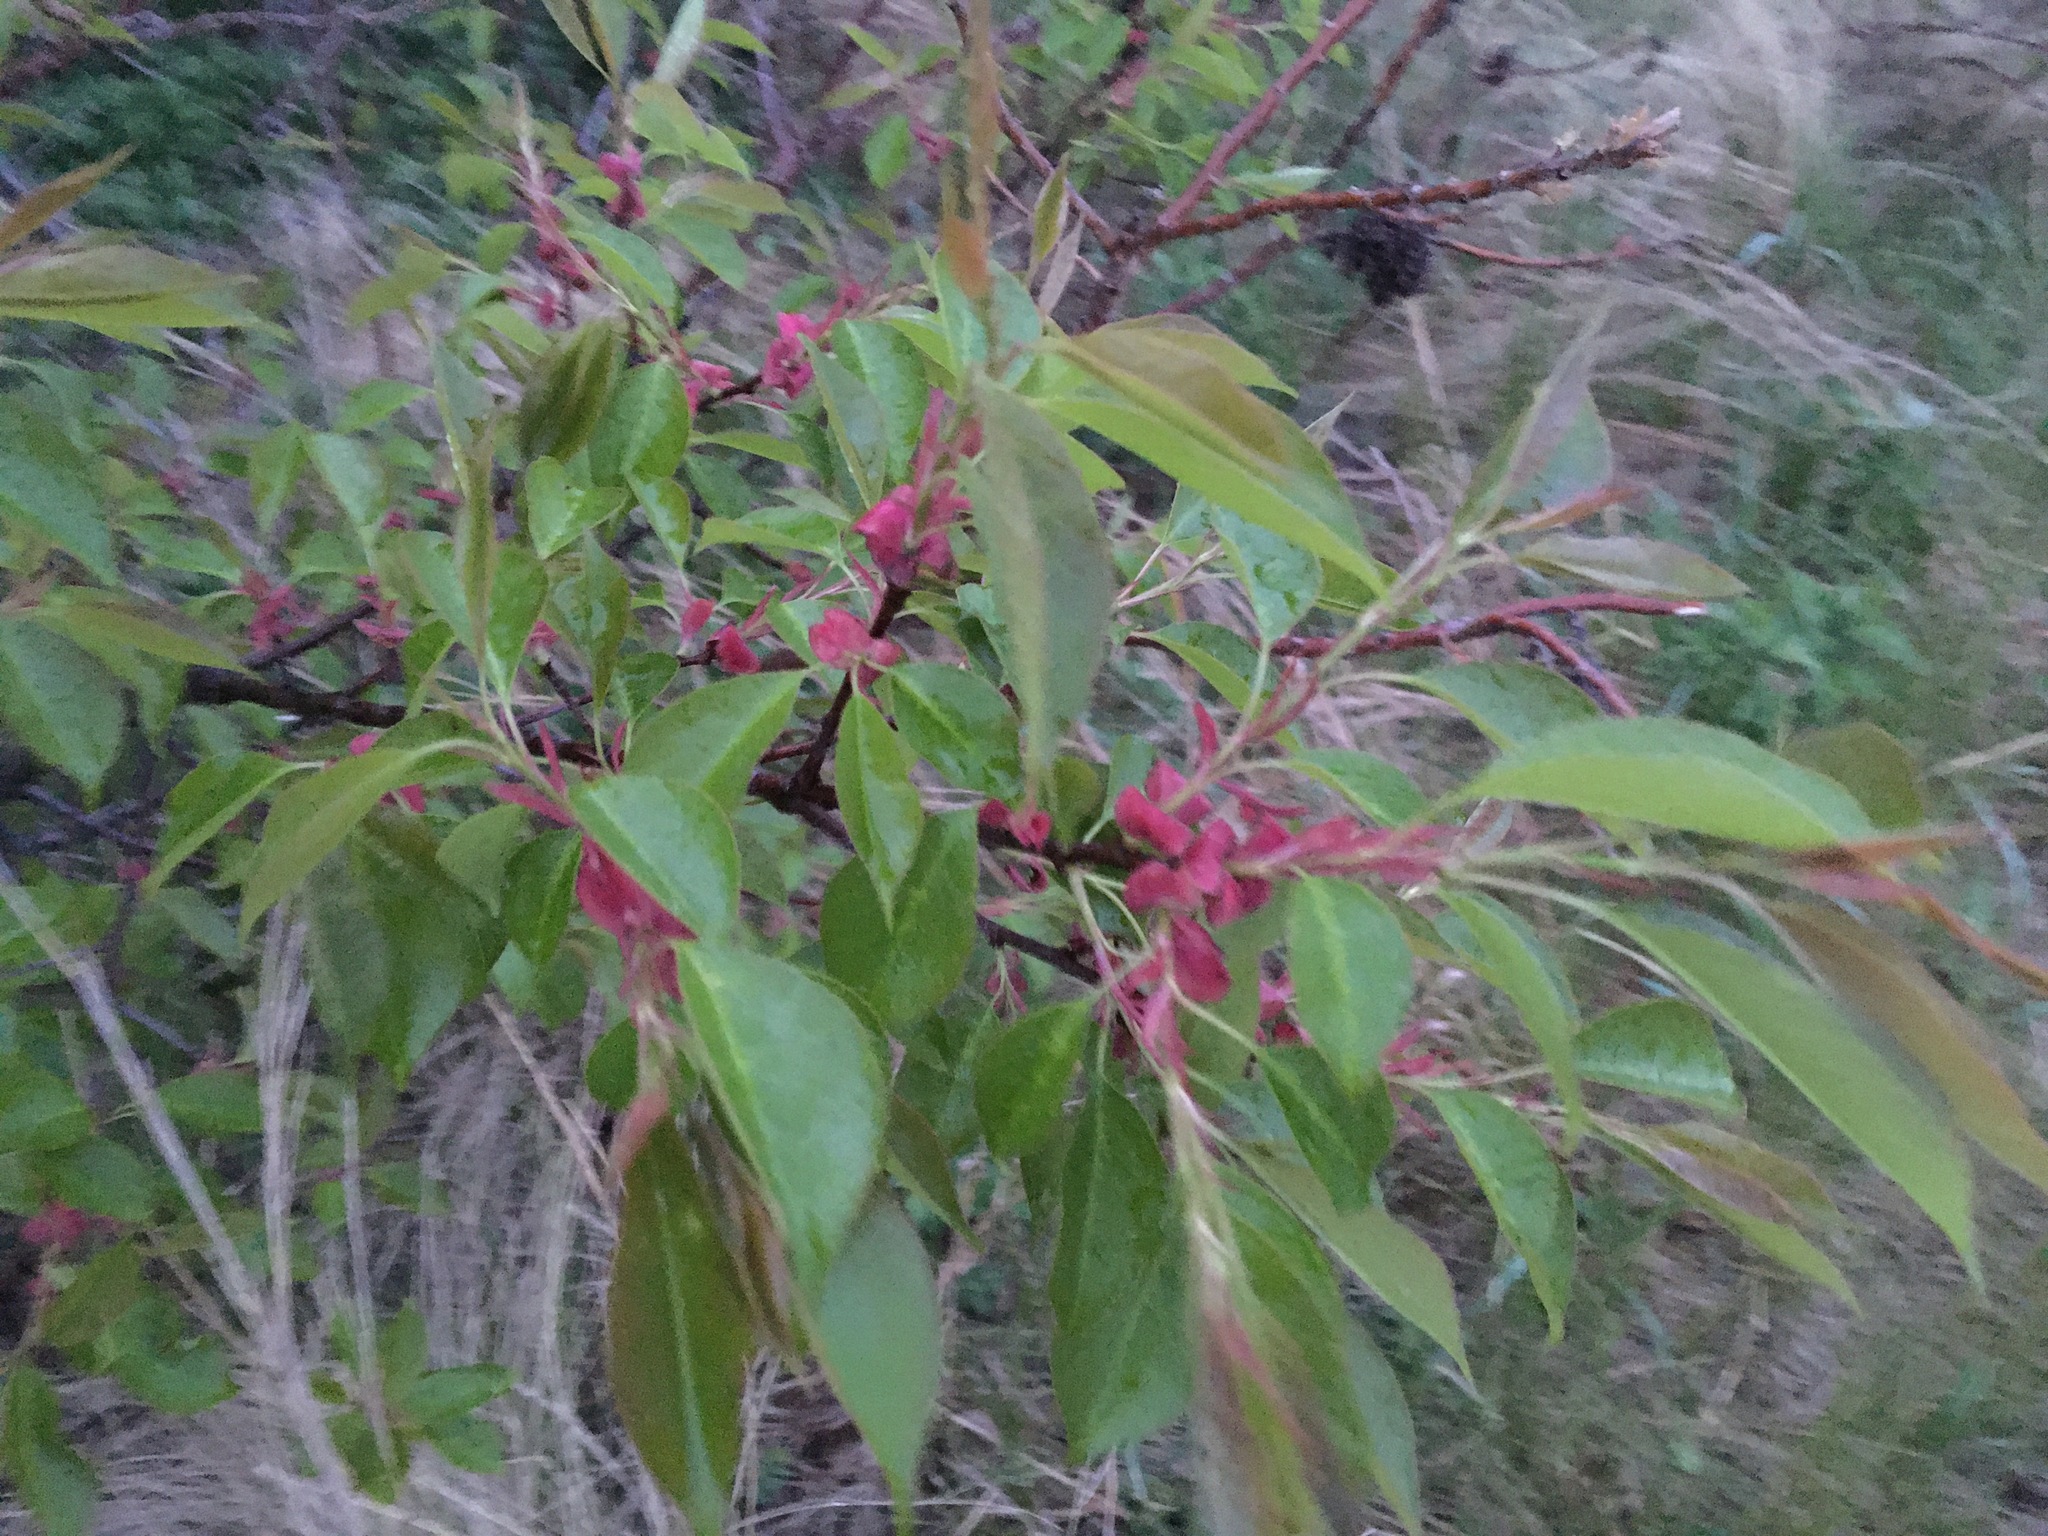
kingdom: Plantae
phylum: Tracheophyta
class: Magnoliopsida
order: Rosales
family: Rosaceae
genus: Prunus
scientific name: Prunus serotina
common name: Black cherry
